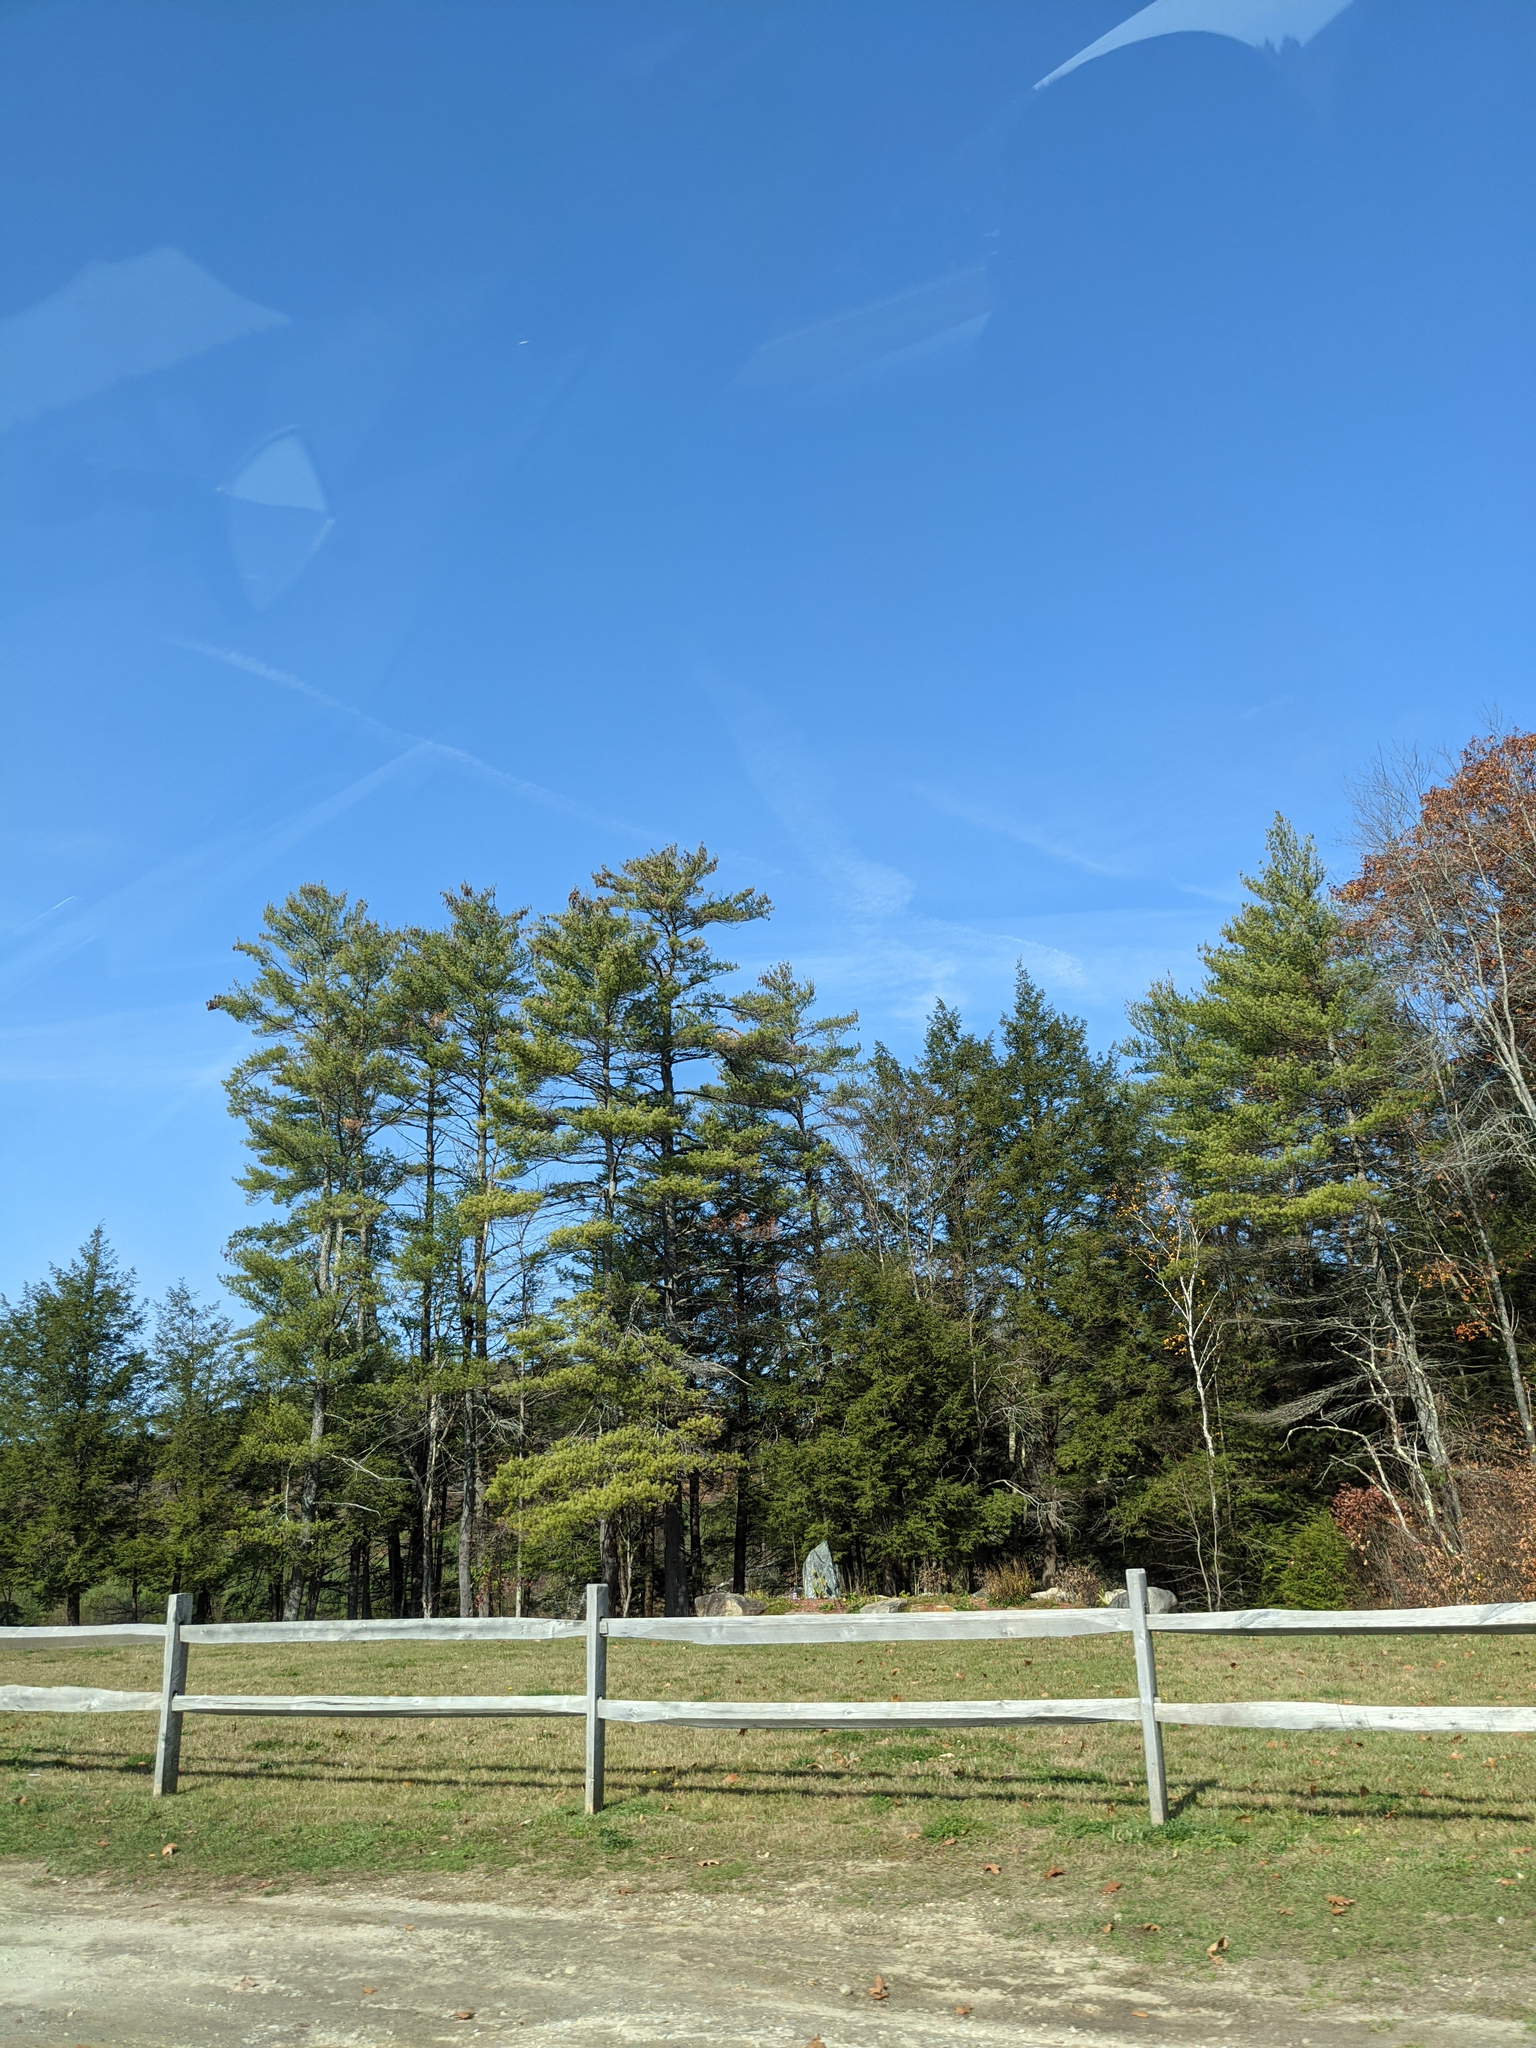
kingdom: Plantae
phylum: Tracheophyta
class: Pinopsida
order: Pinales
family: Pinaceae
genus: Pinus
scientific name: Pinus strobus
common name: Weymouth pine
